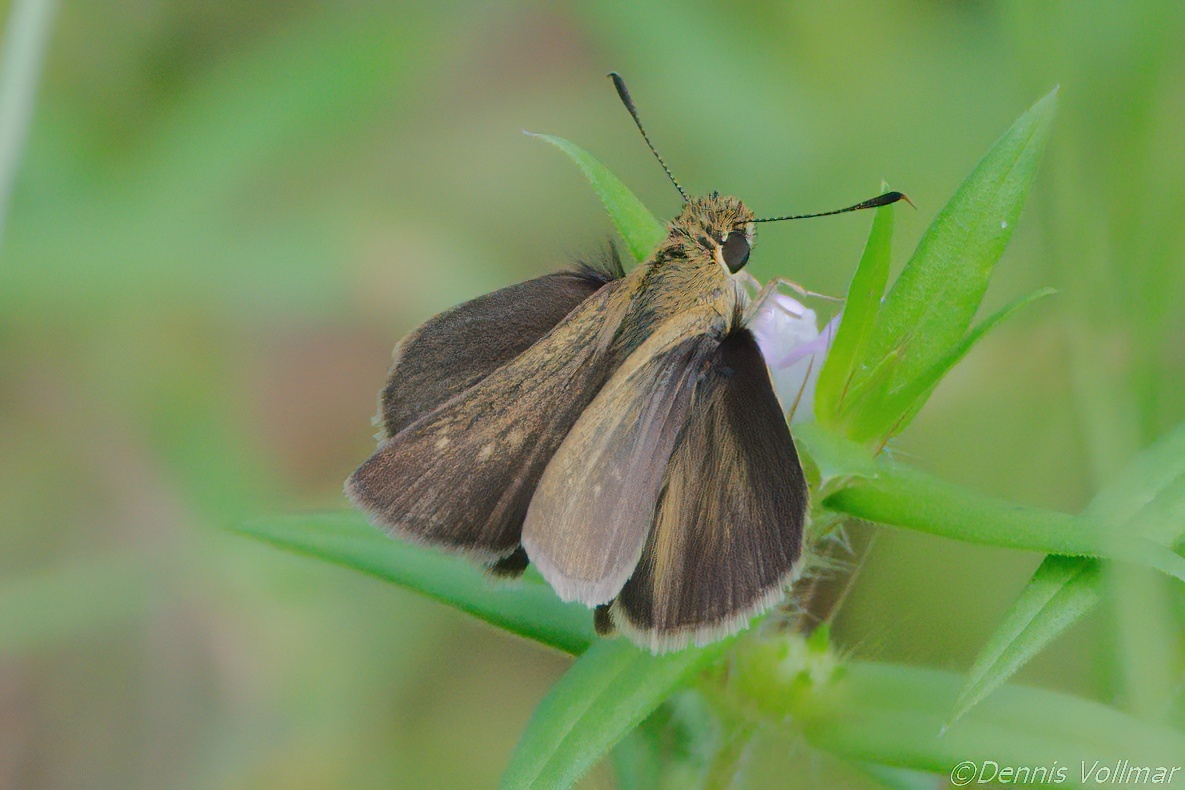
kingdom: Animalia
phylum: Arthropoda
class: Insecta
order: Lepidoptera
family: Hesperiidae
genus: Nastra
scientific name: Nastra
